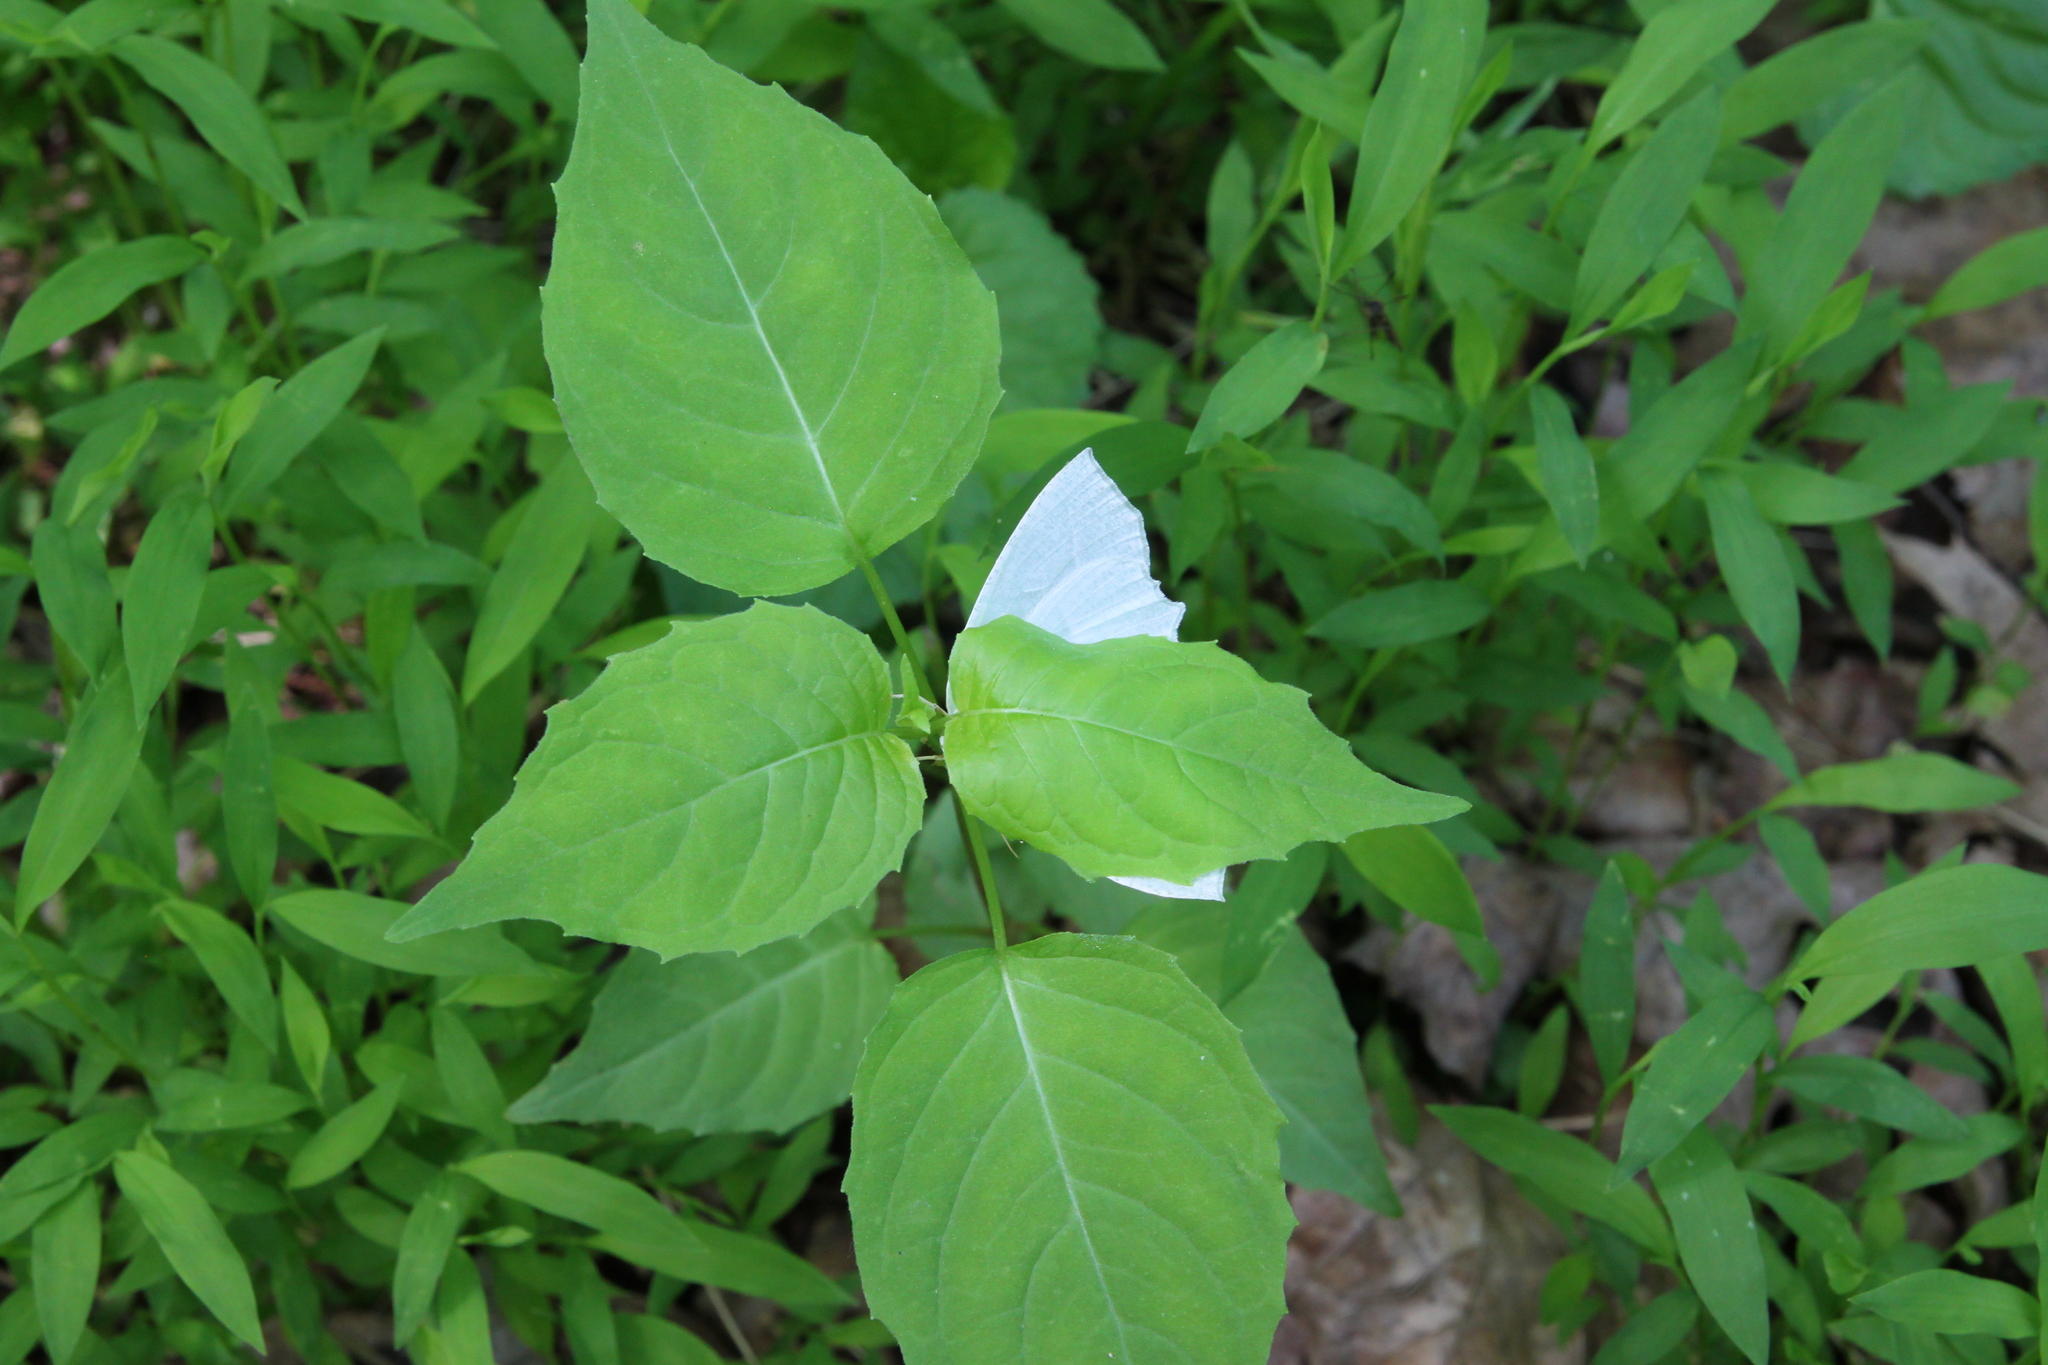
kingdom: Animalia
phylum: Arthropoda
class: Insecta
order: Lepidoptera
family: Geometridae
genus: Campaea
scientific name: Campaea perlata
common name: Fringed looper
